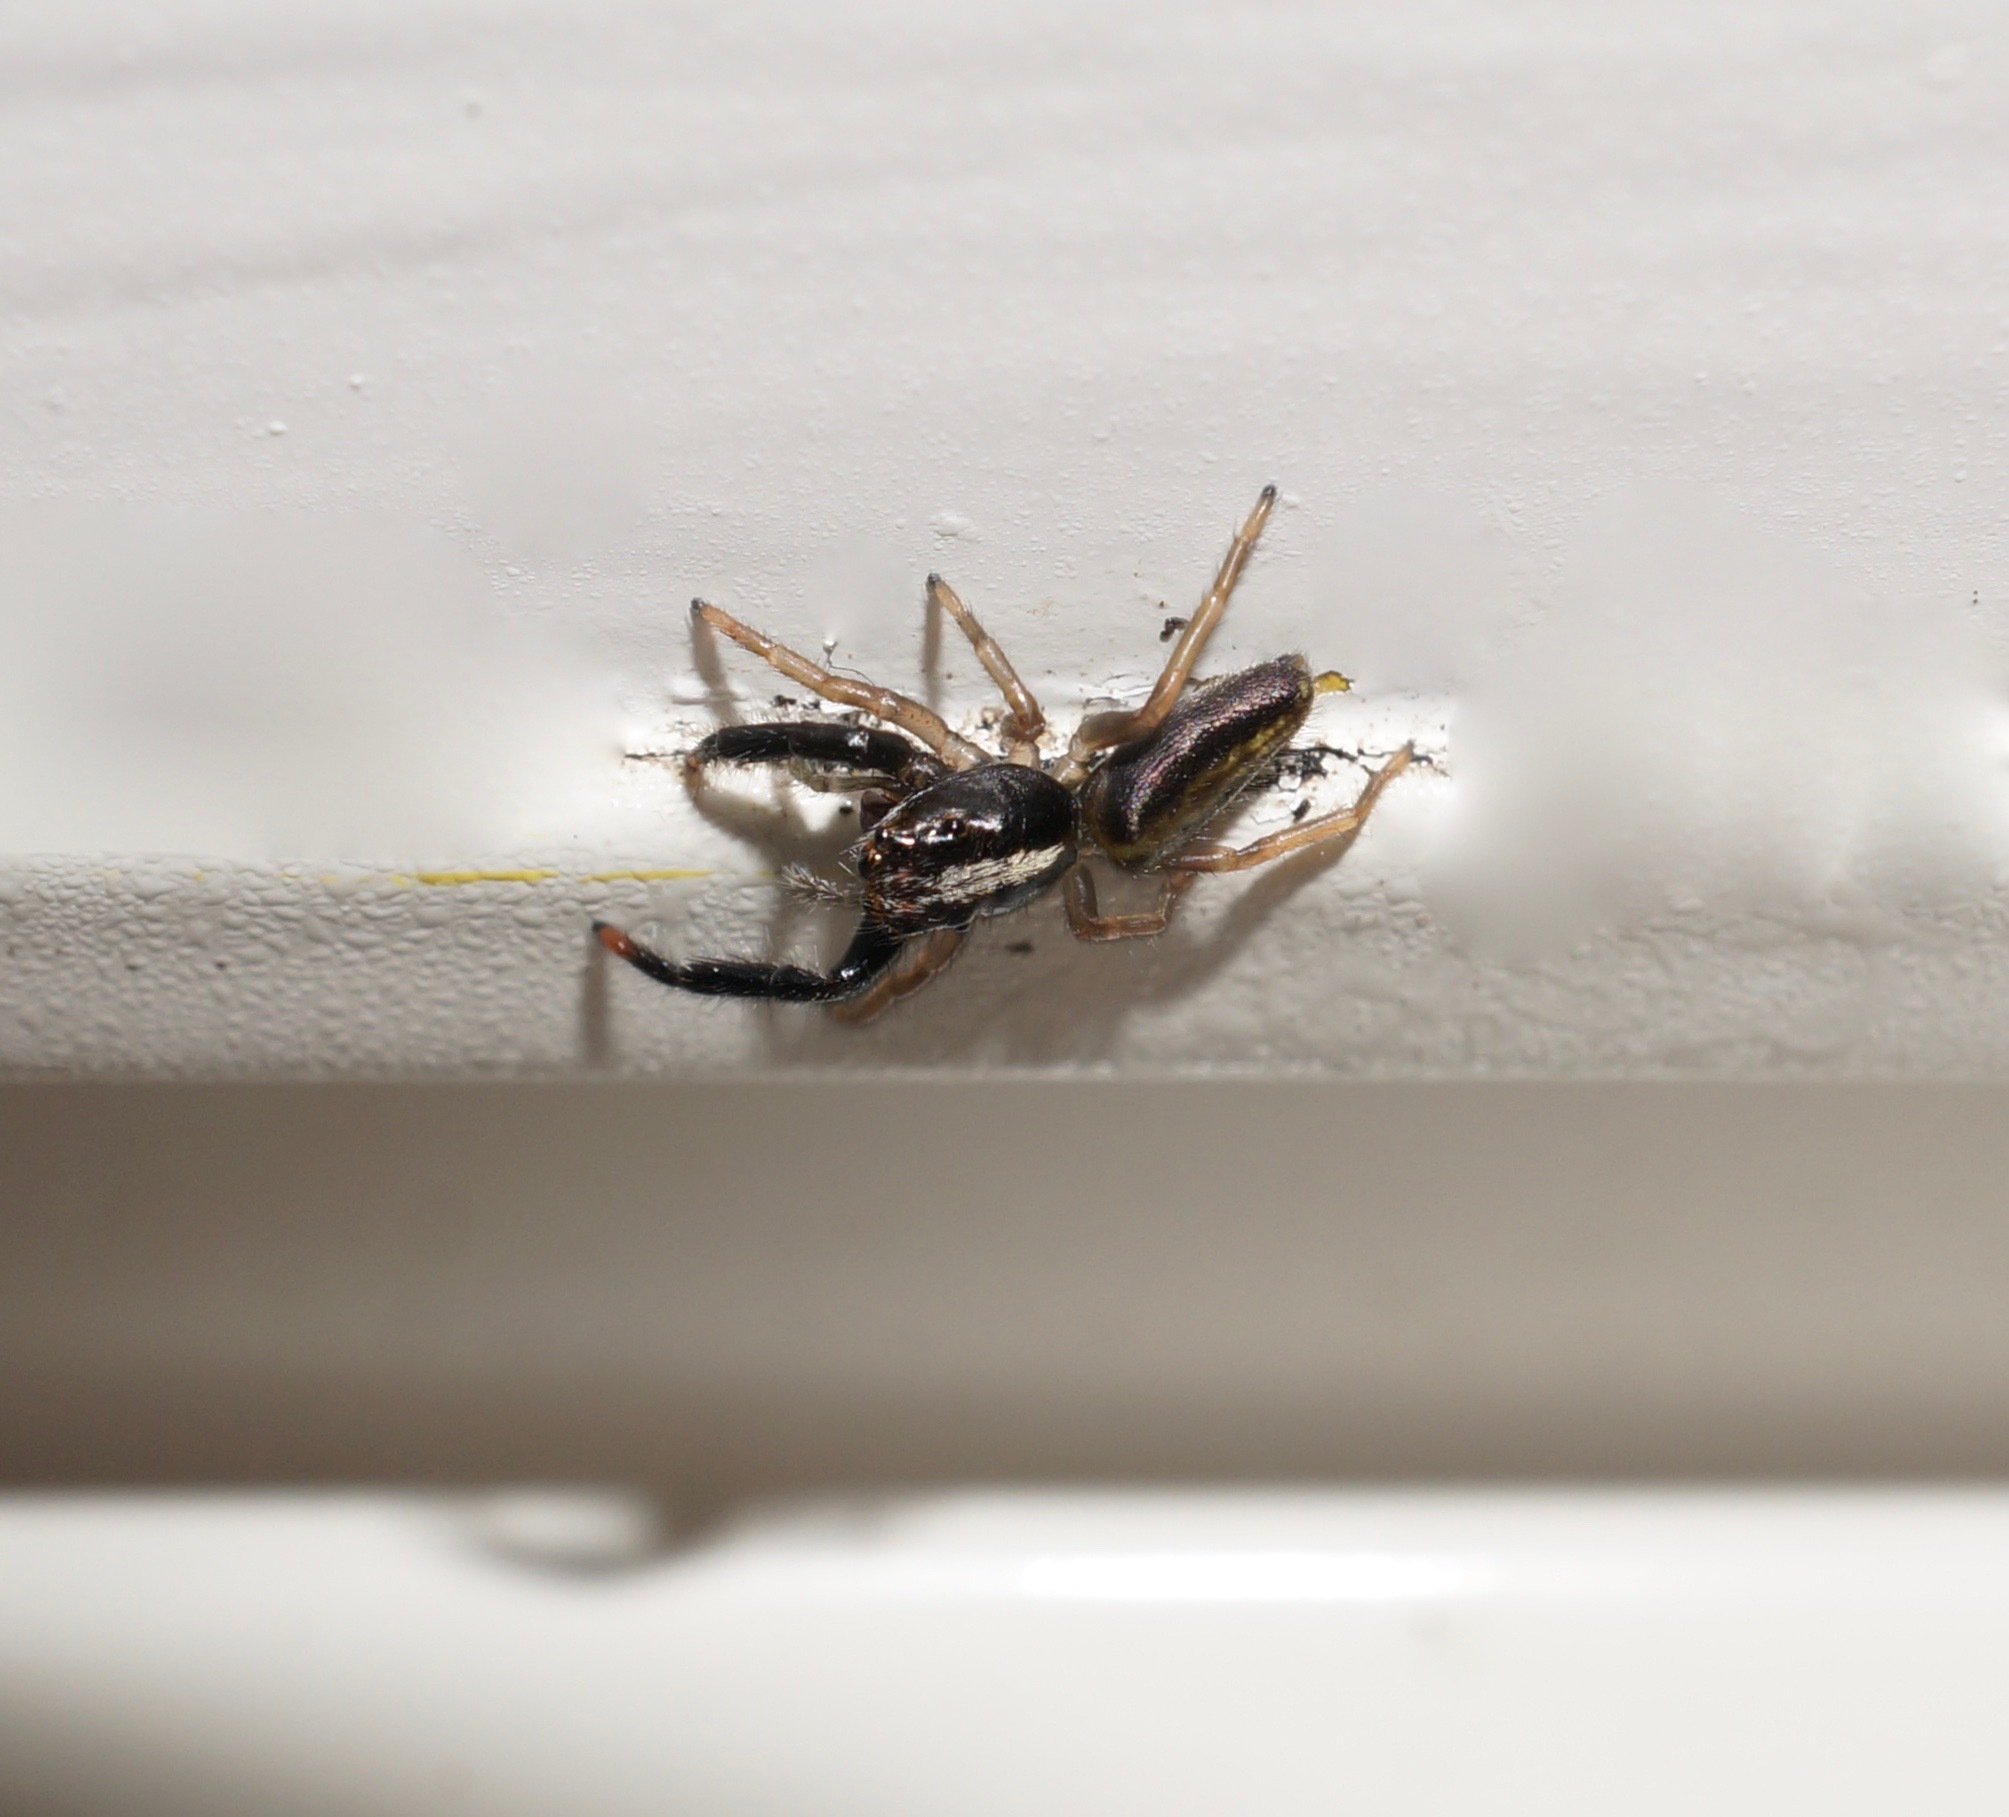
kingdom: Animalia
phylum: Arthropoda
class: Arachnida
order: Araneae
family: Salticidae
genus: Trite
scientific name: Trite planiceps
